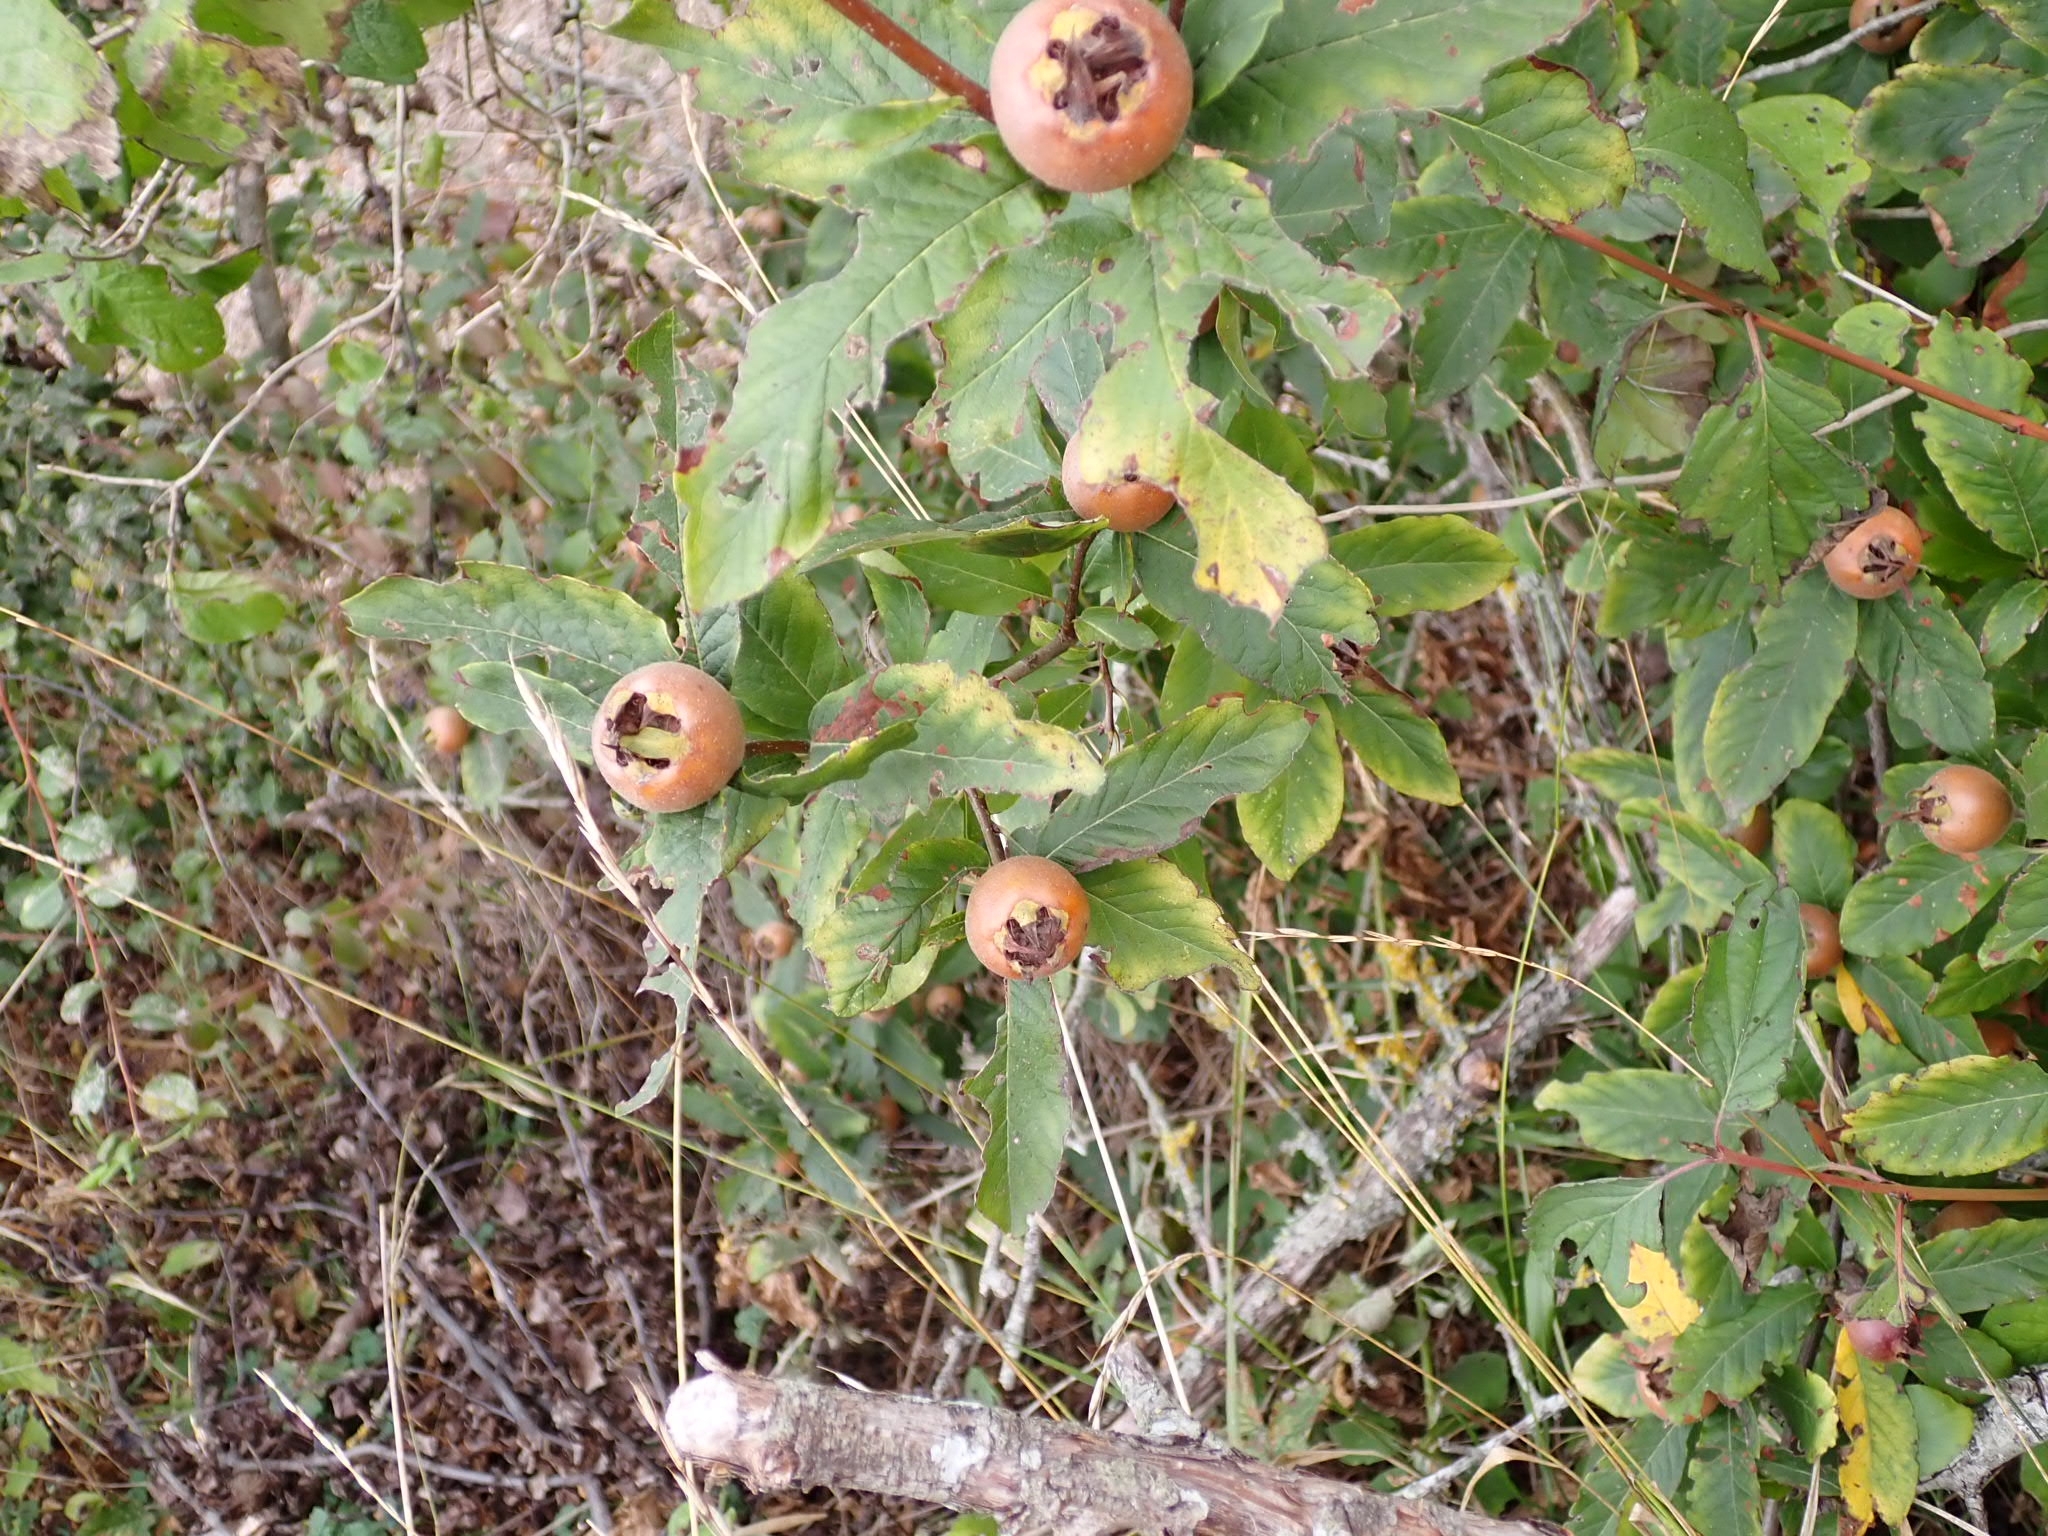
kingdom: Plantae
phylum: Tracheophyta
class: Magnoliopsida
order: Rosales
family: Rosaceae
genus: Mespilus
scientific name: Mespilus germanica
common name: Medlar
